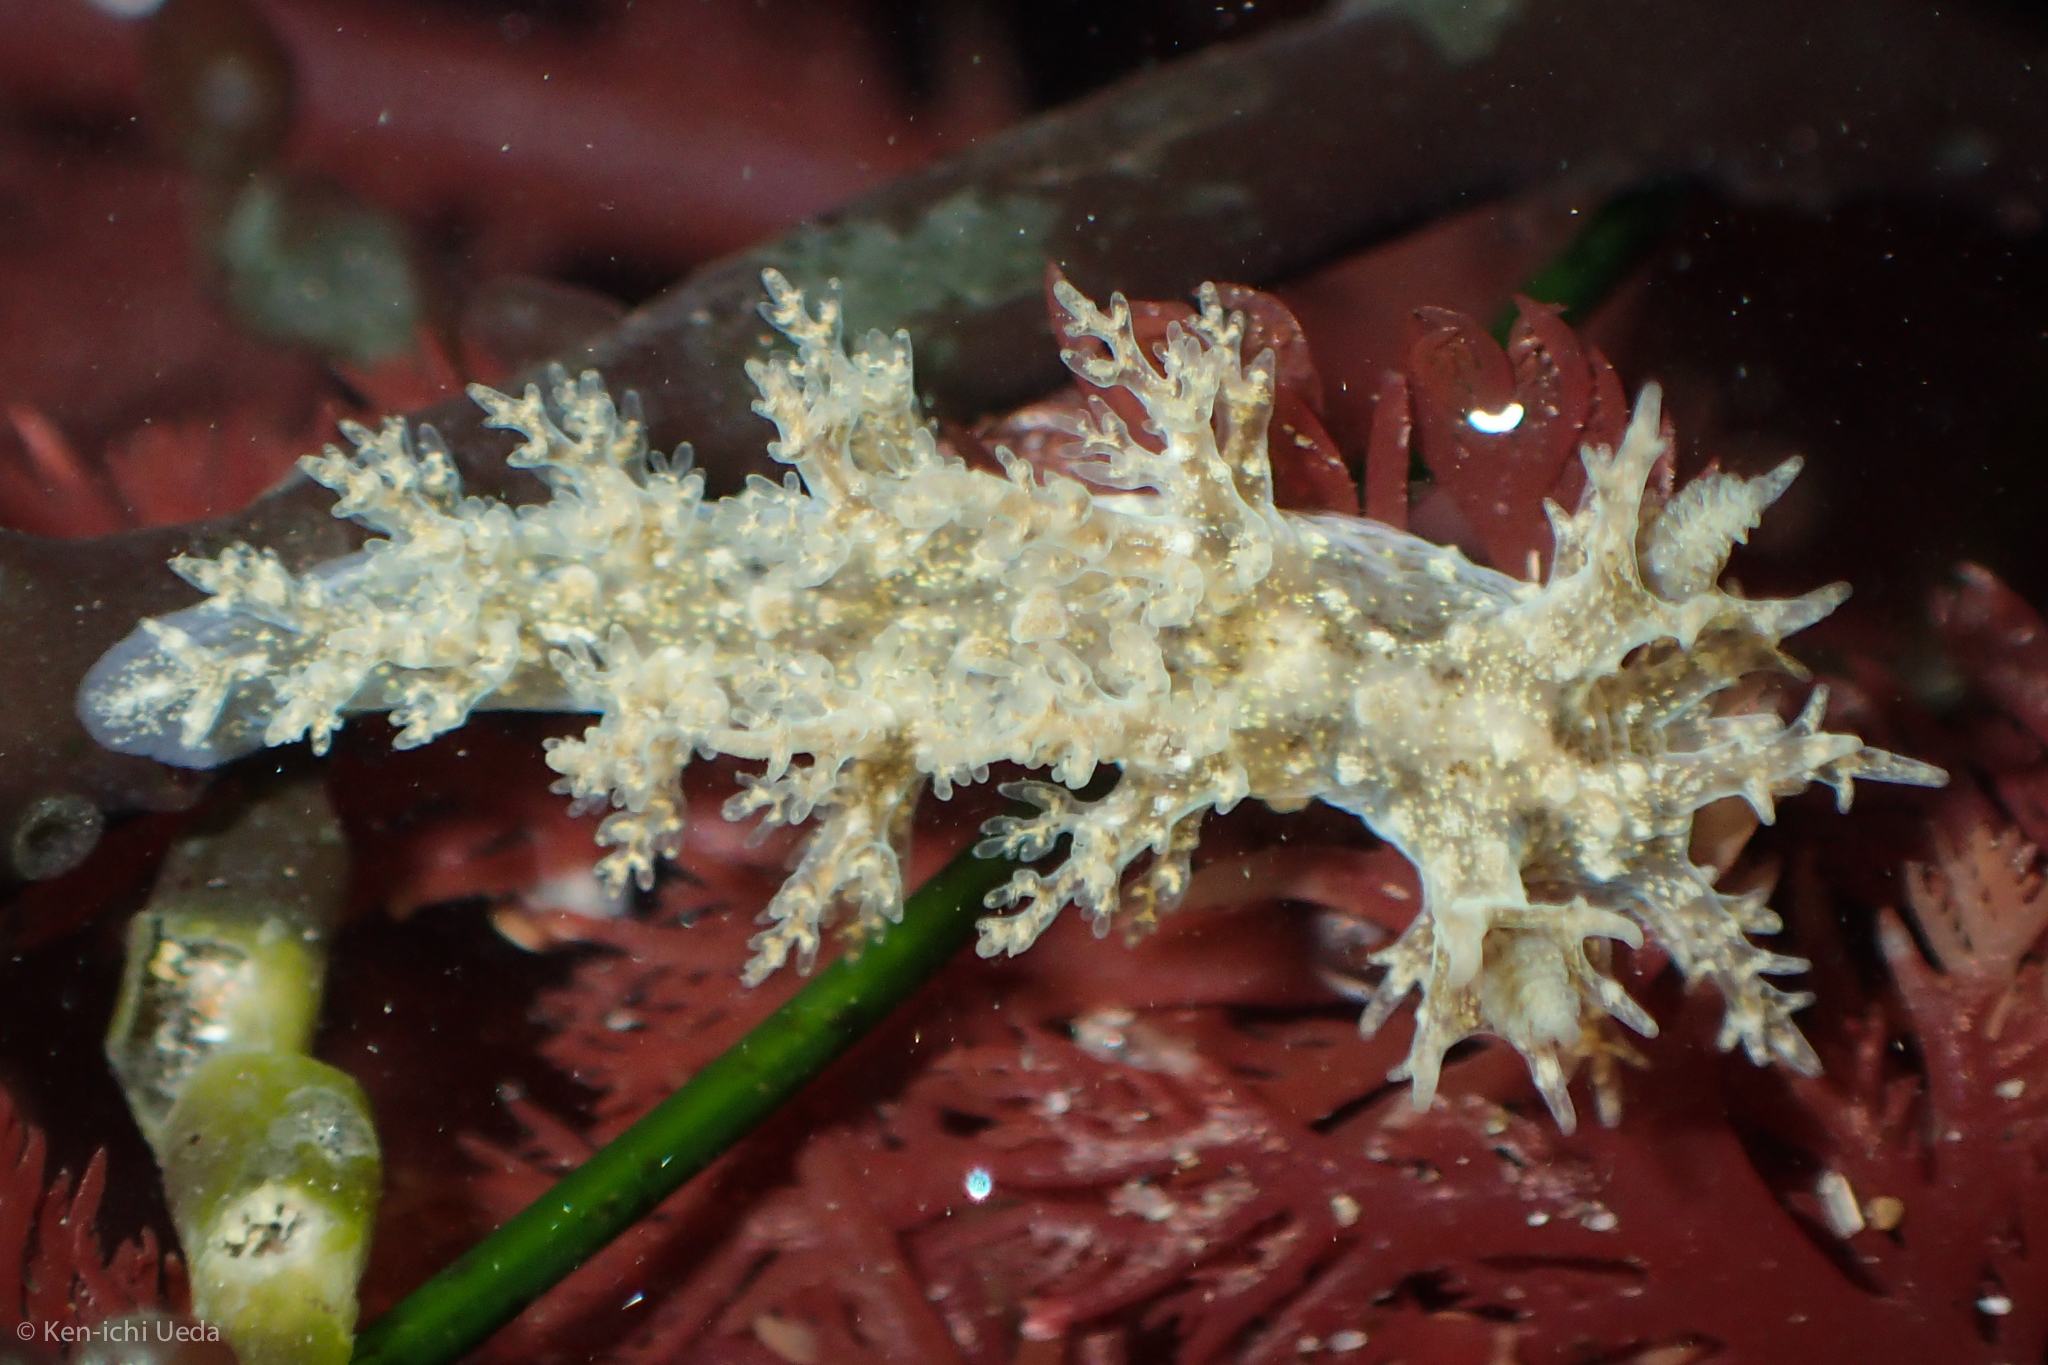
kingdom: Animalia
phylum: Mollusca
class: Gastropoda
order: Nudibranchia
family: Dendronotidae
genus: Dendronotus
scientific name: Dendronotus venustus
